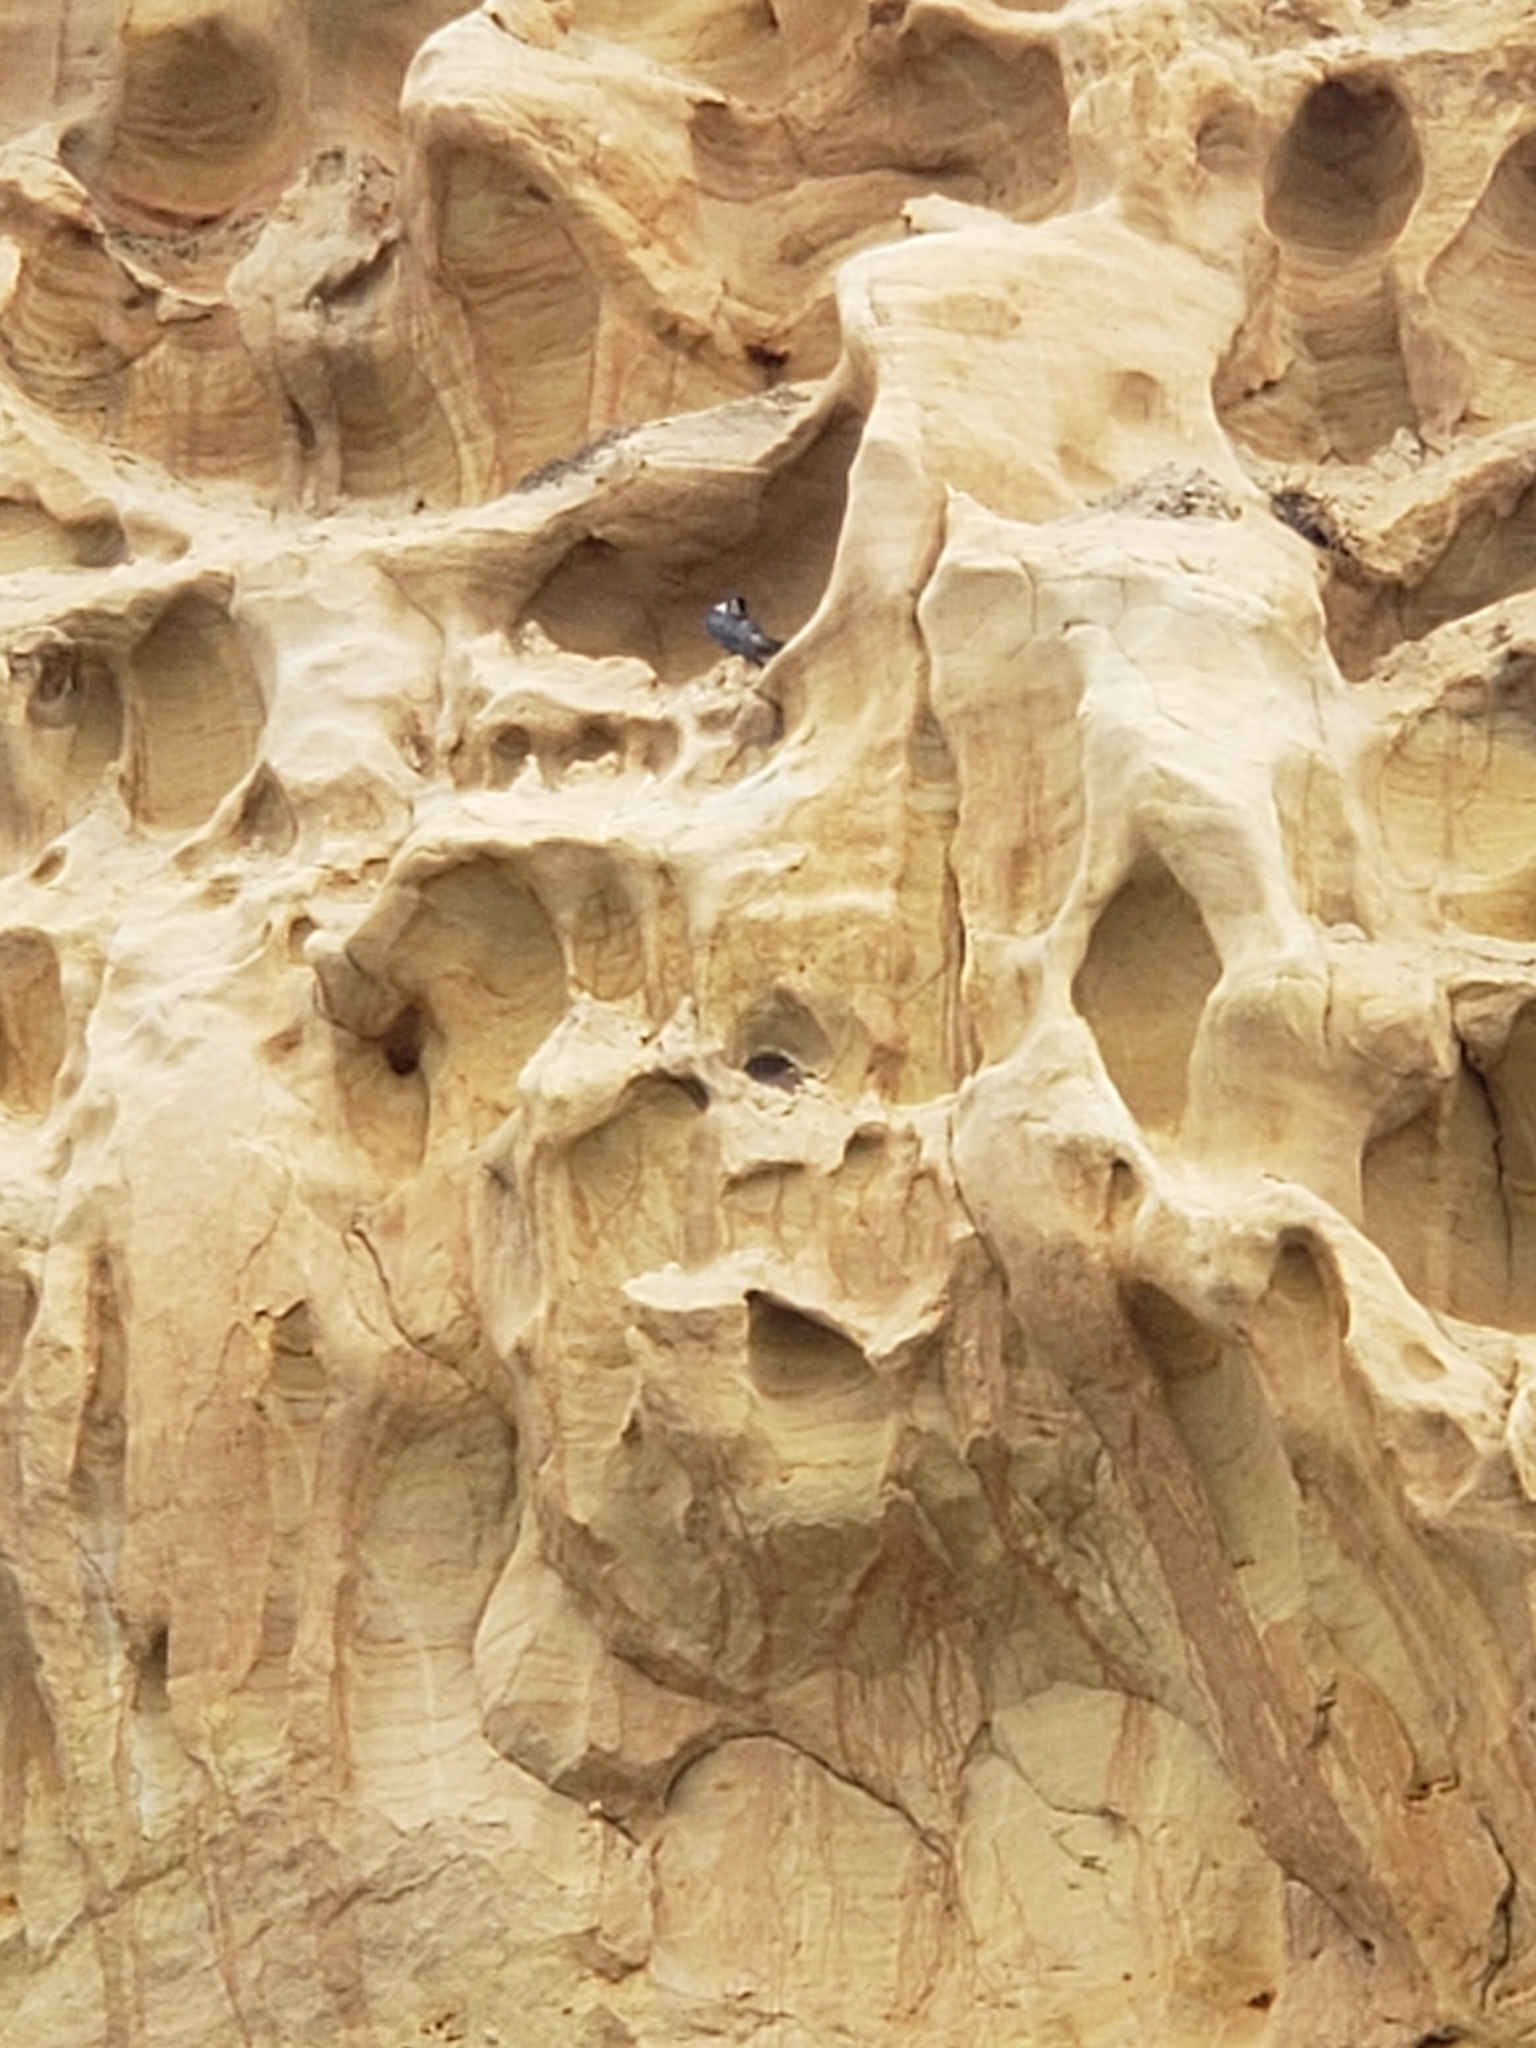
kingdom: Animalia
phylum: Chordata
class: Aves
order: Falconiformes
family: Falconidae
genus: Falco
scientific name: Falco peregrinus
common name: Peregrine falcon
